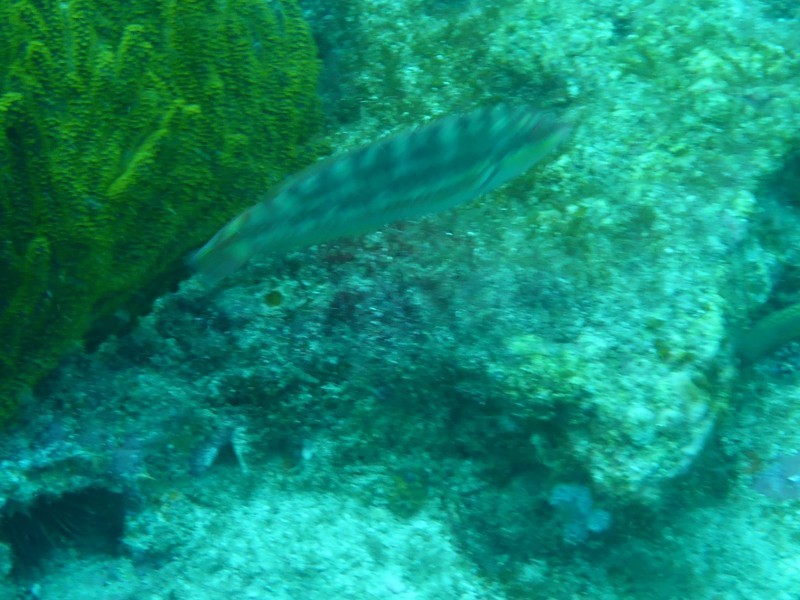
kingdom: Animalia
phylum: Chordata
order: Perciformes
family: Labridae
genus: Bodianus
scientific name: Bodianus diplotaenia
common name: Mexican hogfish
